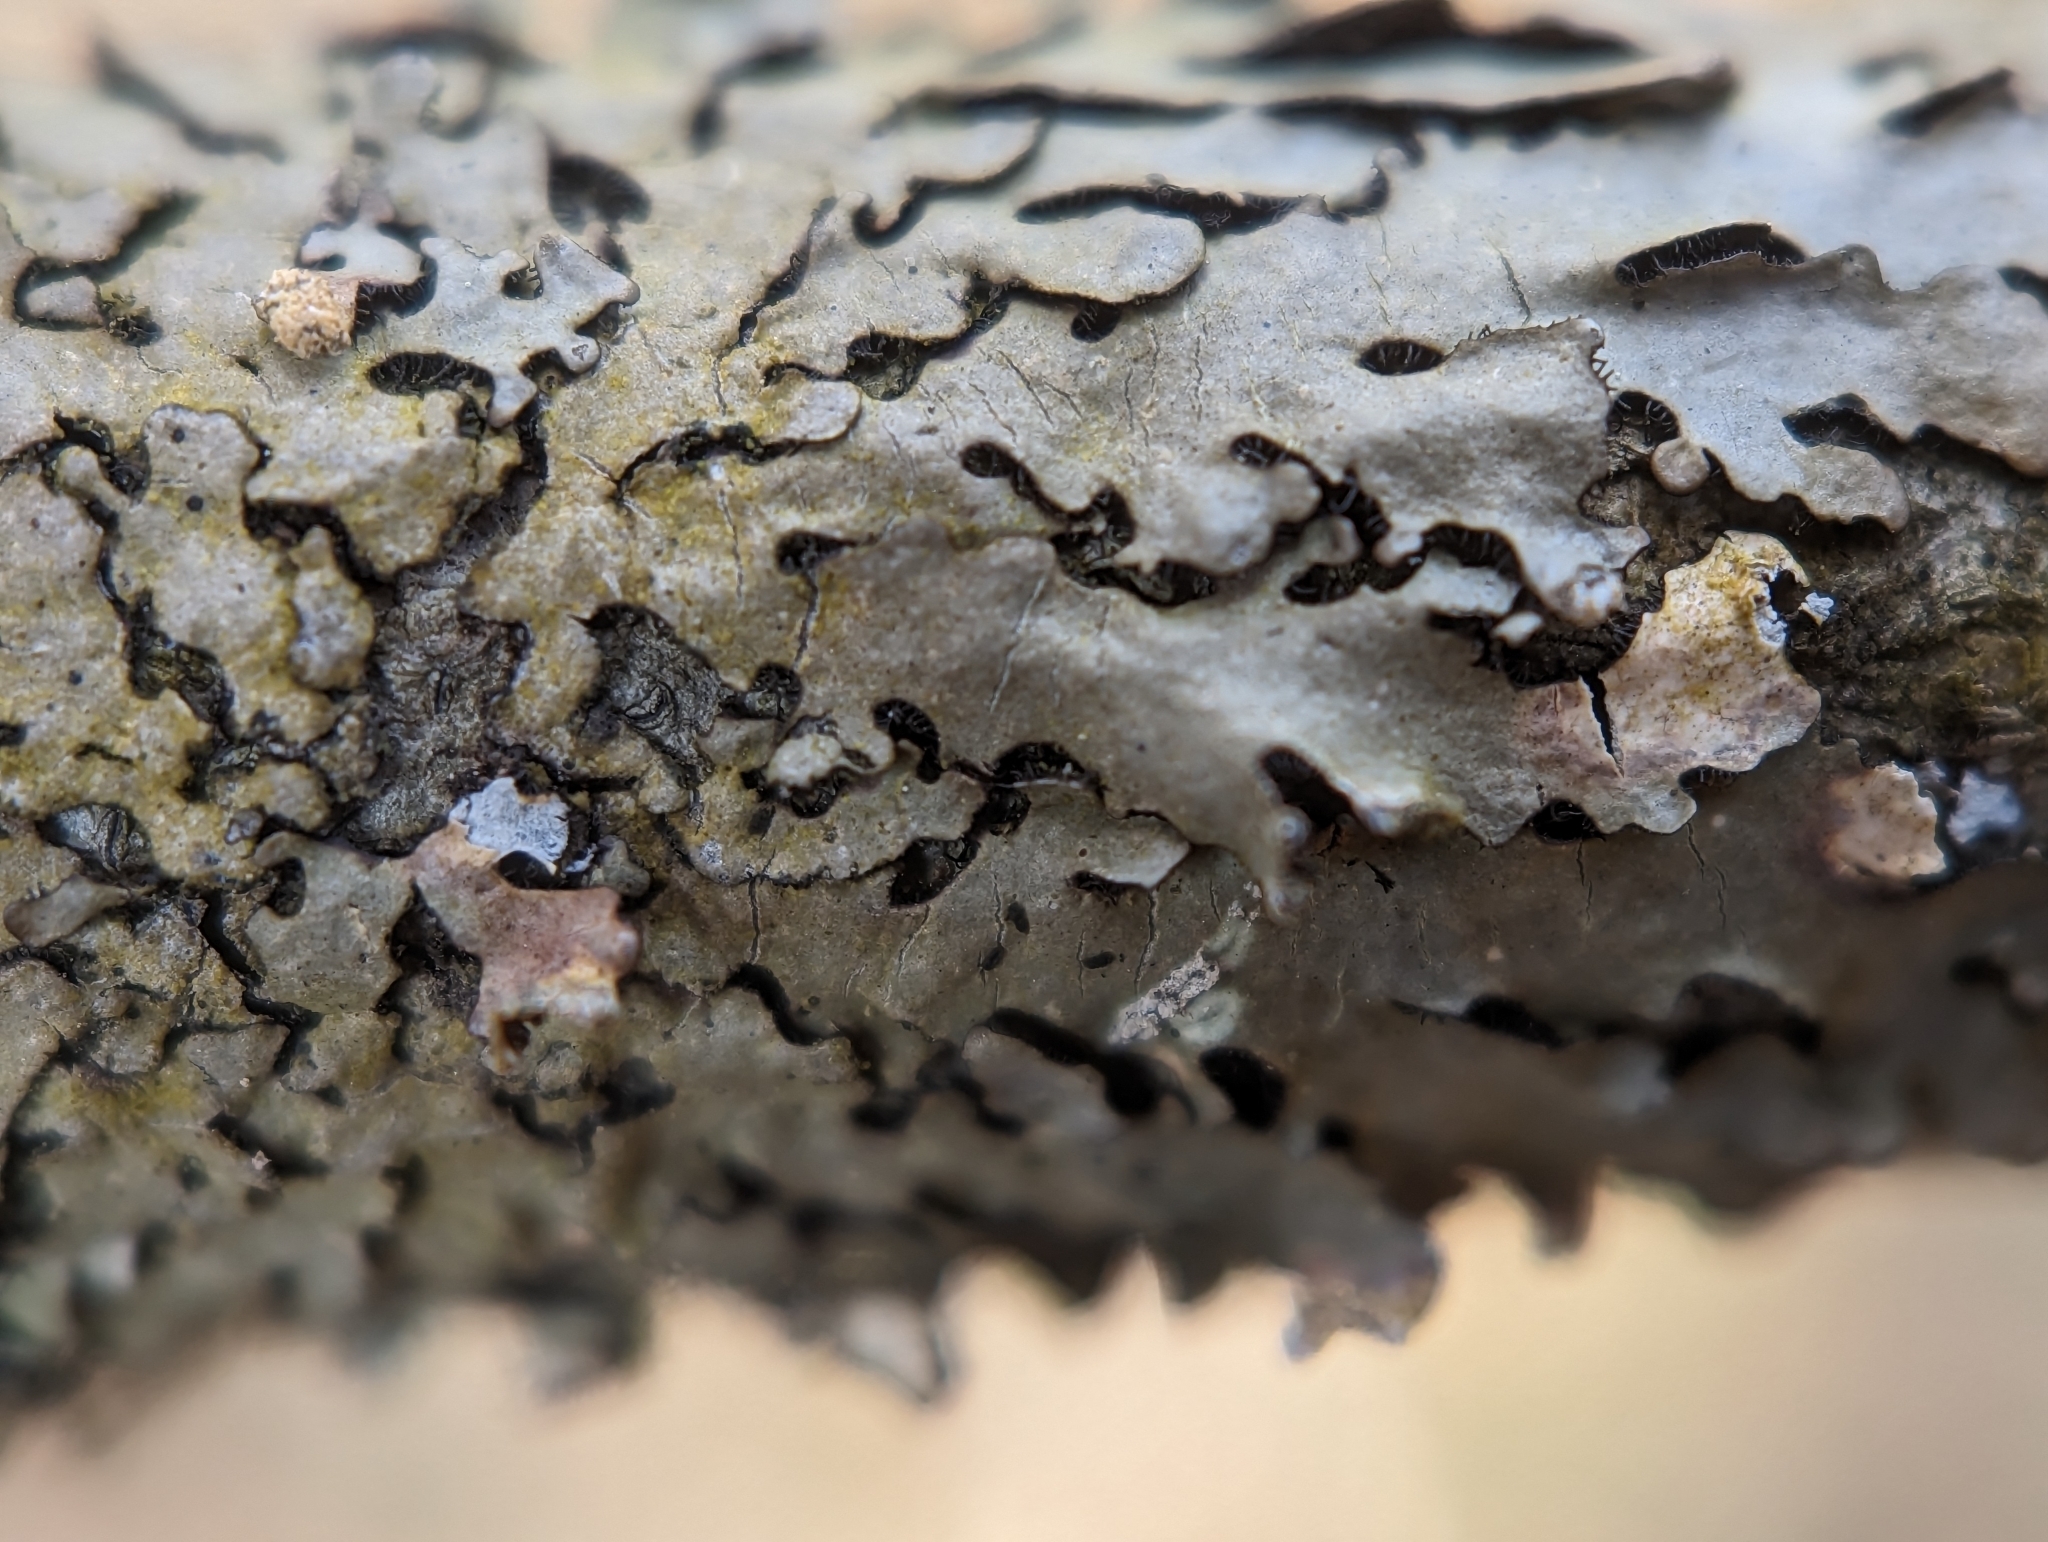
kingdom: Fungi
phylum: Ascomycota
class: Lecanoromycetes
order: Lecanorales
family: Parmeliaceae
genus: Myelochroa
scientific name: Myelochroa metarevoluta
